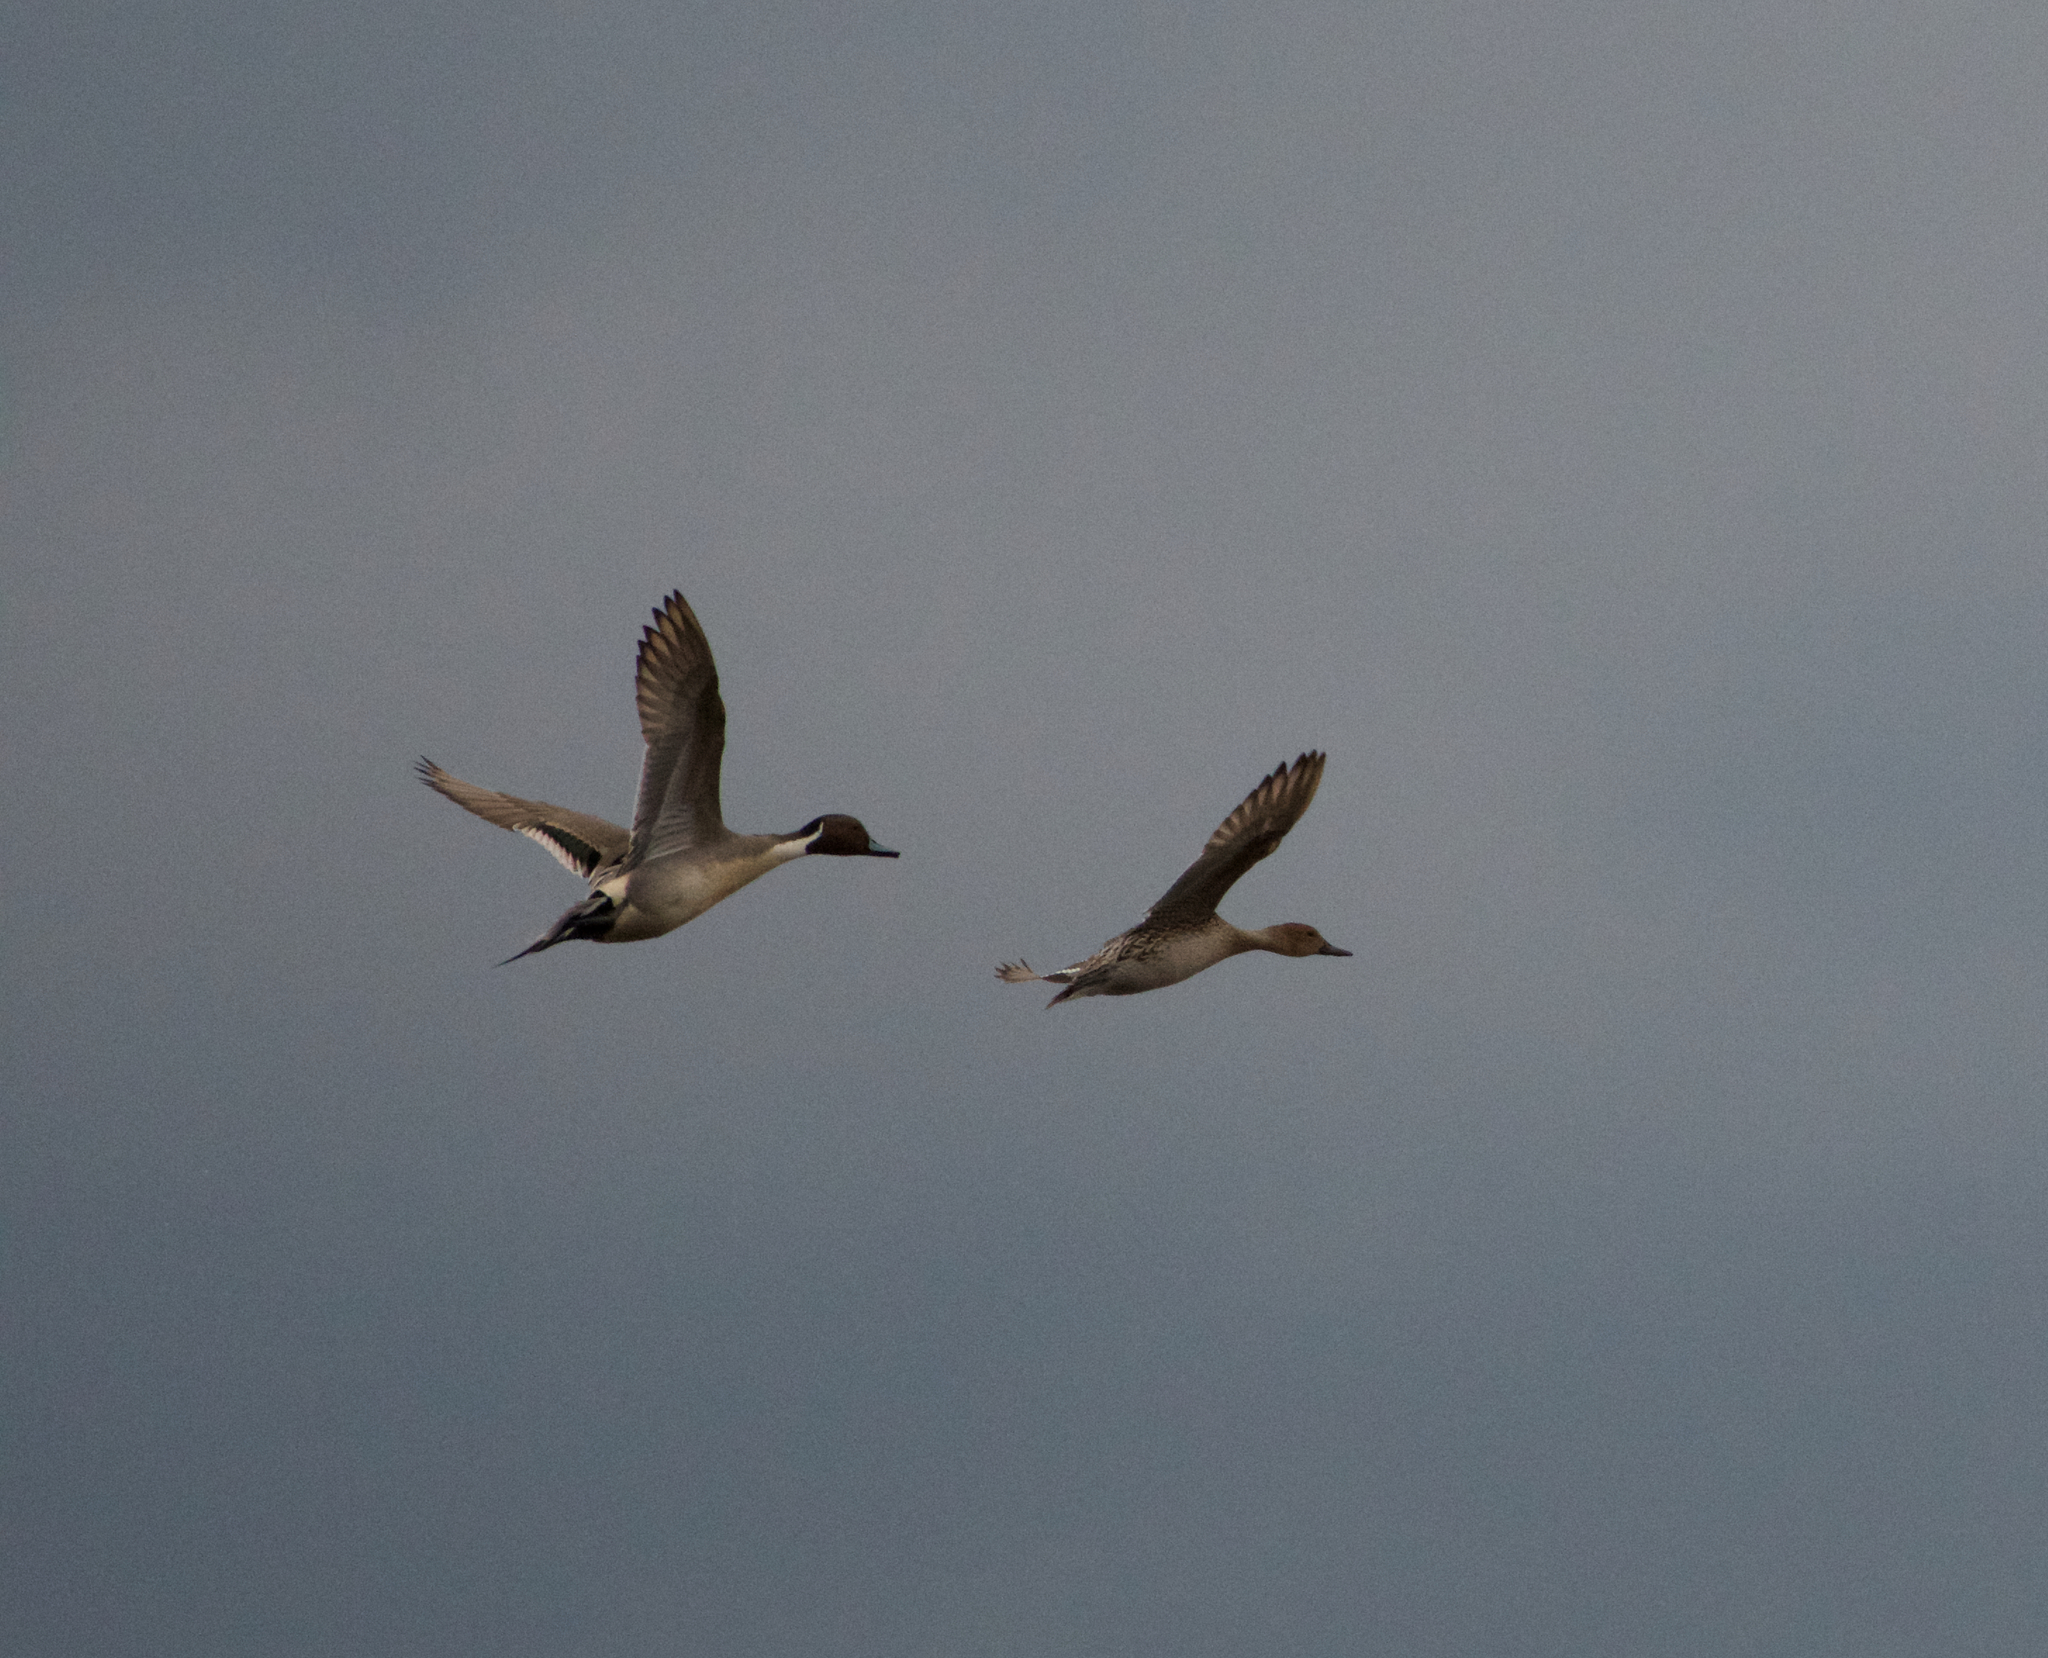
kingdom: Animalia
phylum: Chordata
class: Aves
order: Anseriformes
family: Anatidae
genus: Anas
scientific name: Anas acuta
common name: Northern pintail
